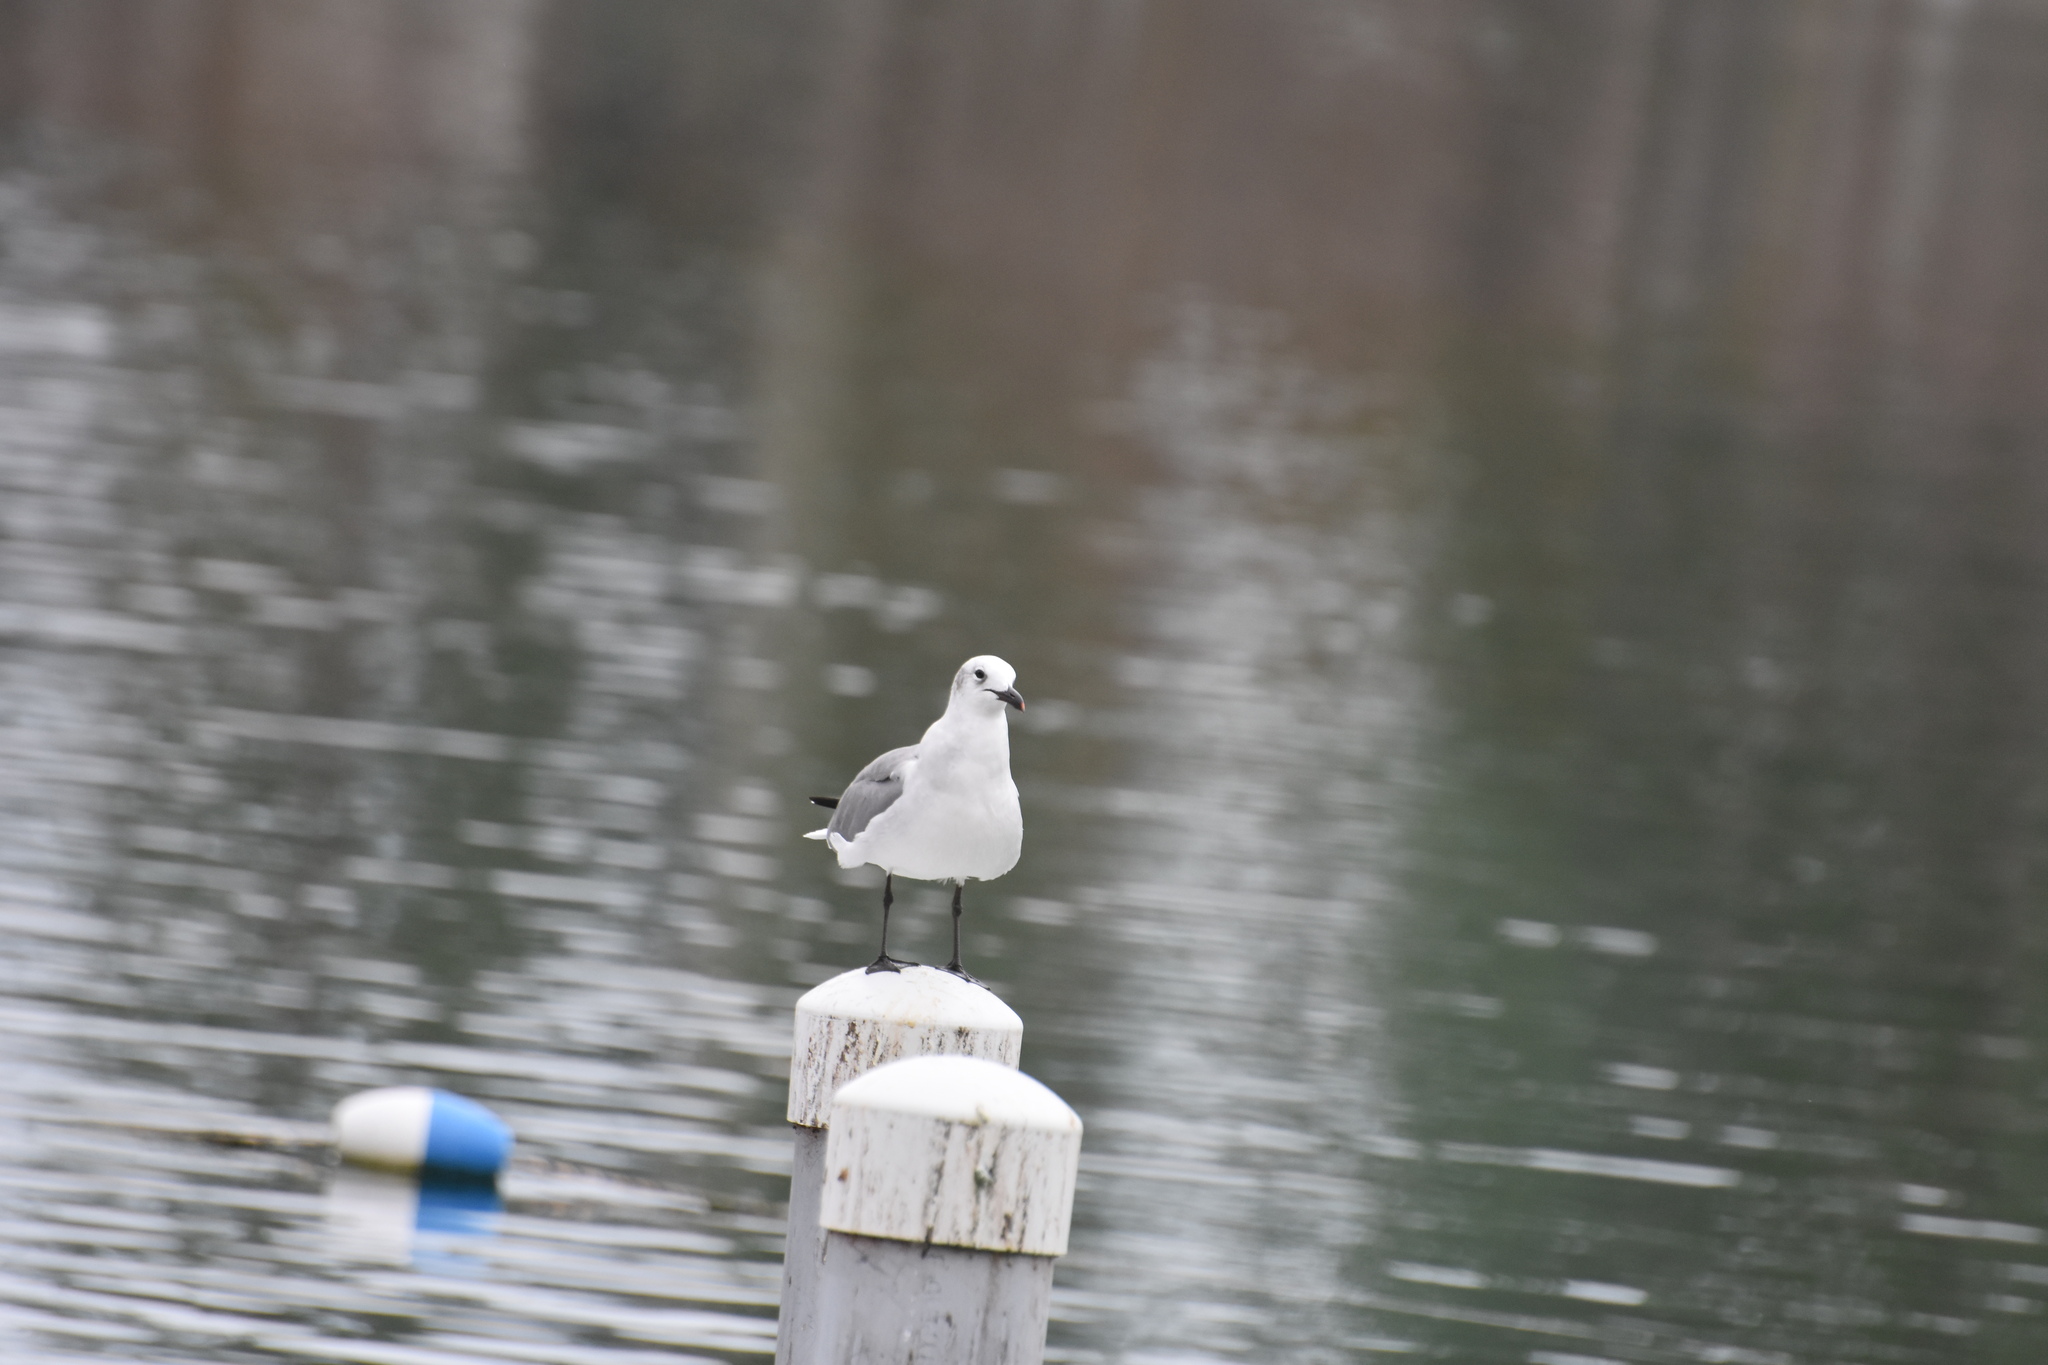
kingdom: Animalia
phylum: Chordata
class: Aves
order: Charadriiformes
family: Laridae
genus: Leucophaeus
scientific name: Leucophaeus atricilla
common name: Laughing gull
